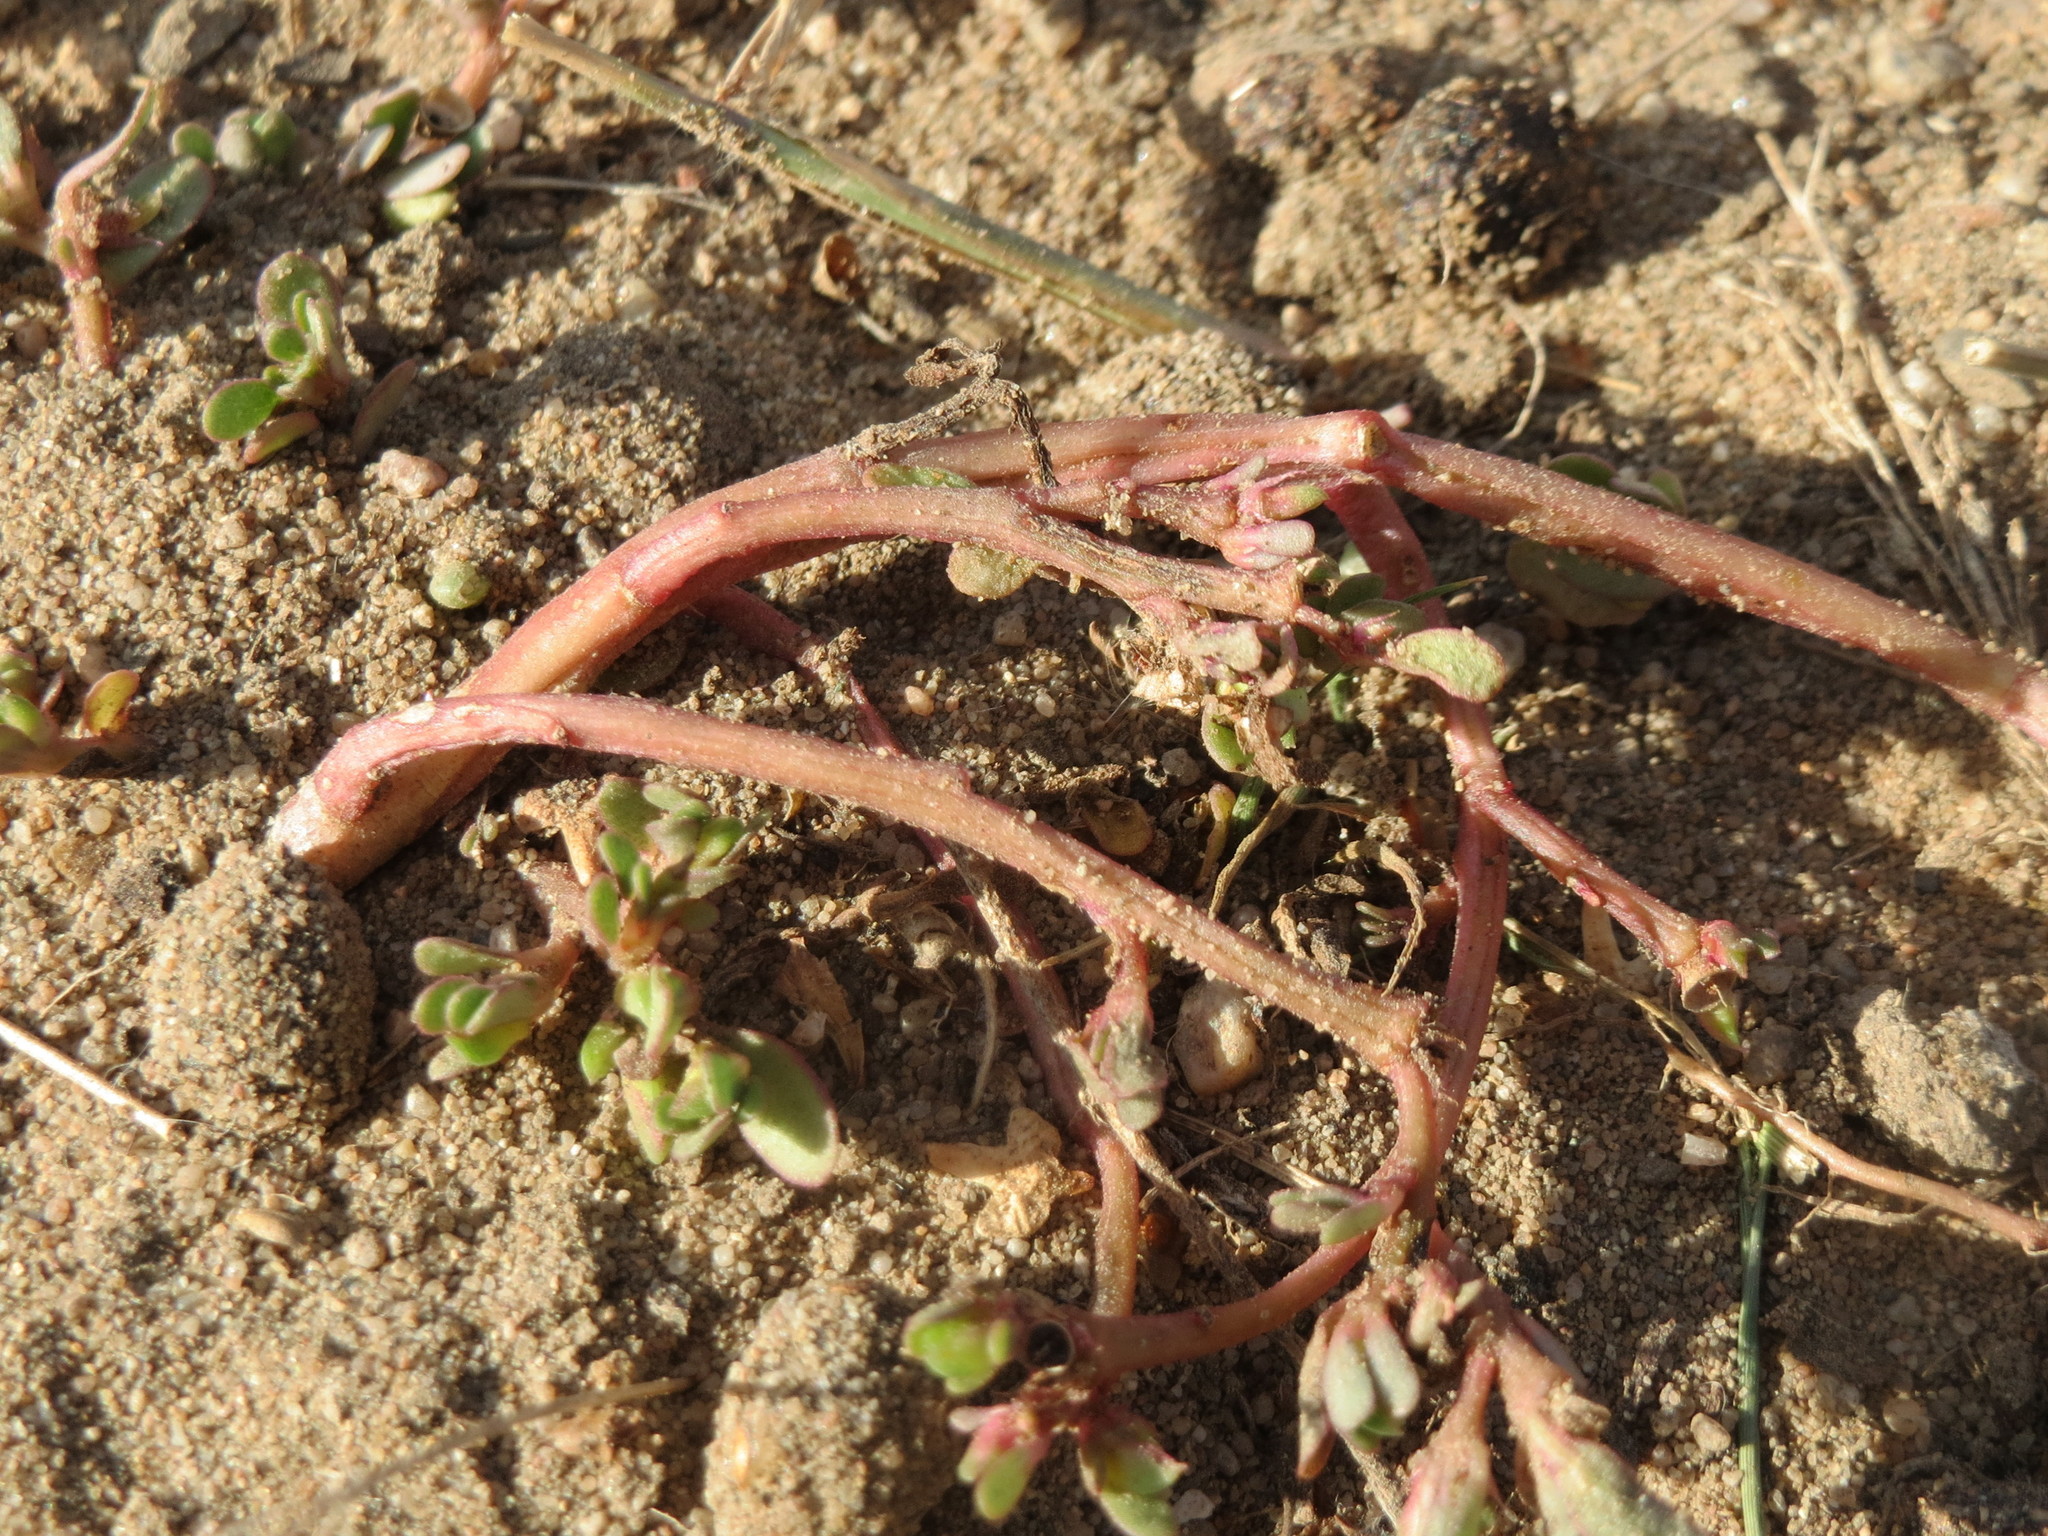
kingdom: Plantae
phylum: Tracheophyta
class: Magnoliopsida
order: Caryophyllales
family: Portulacaceae
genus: Portulaca
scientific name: Portulaca oleracea
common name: Common purslane
